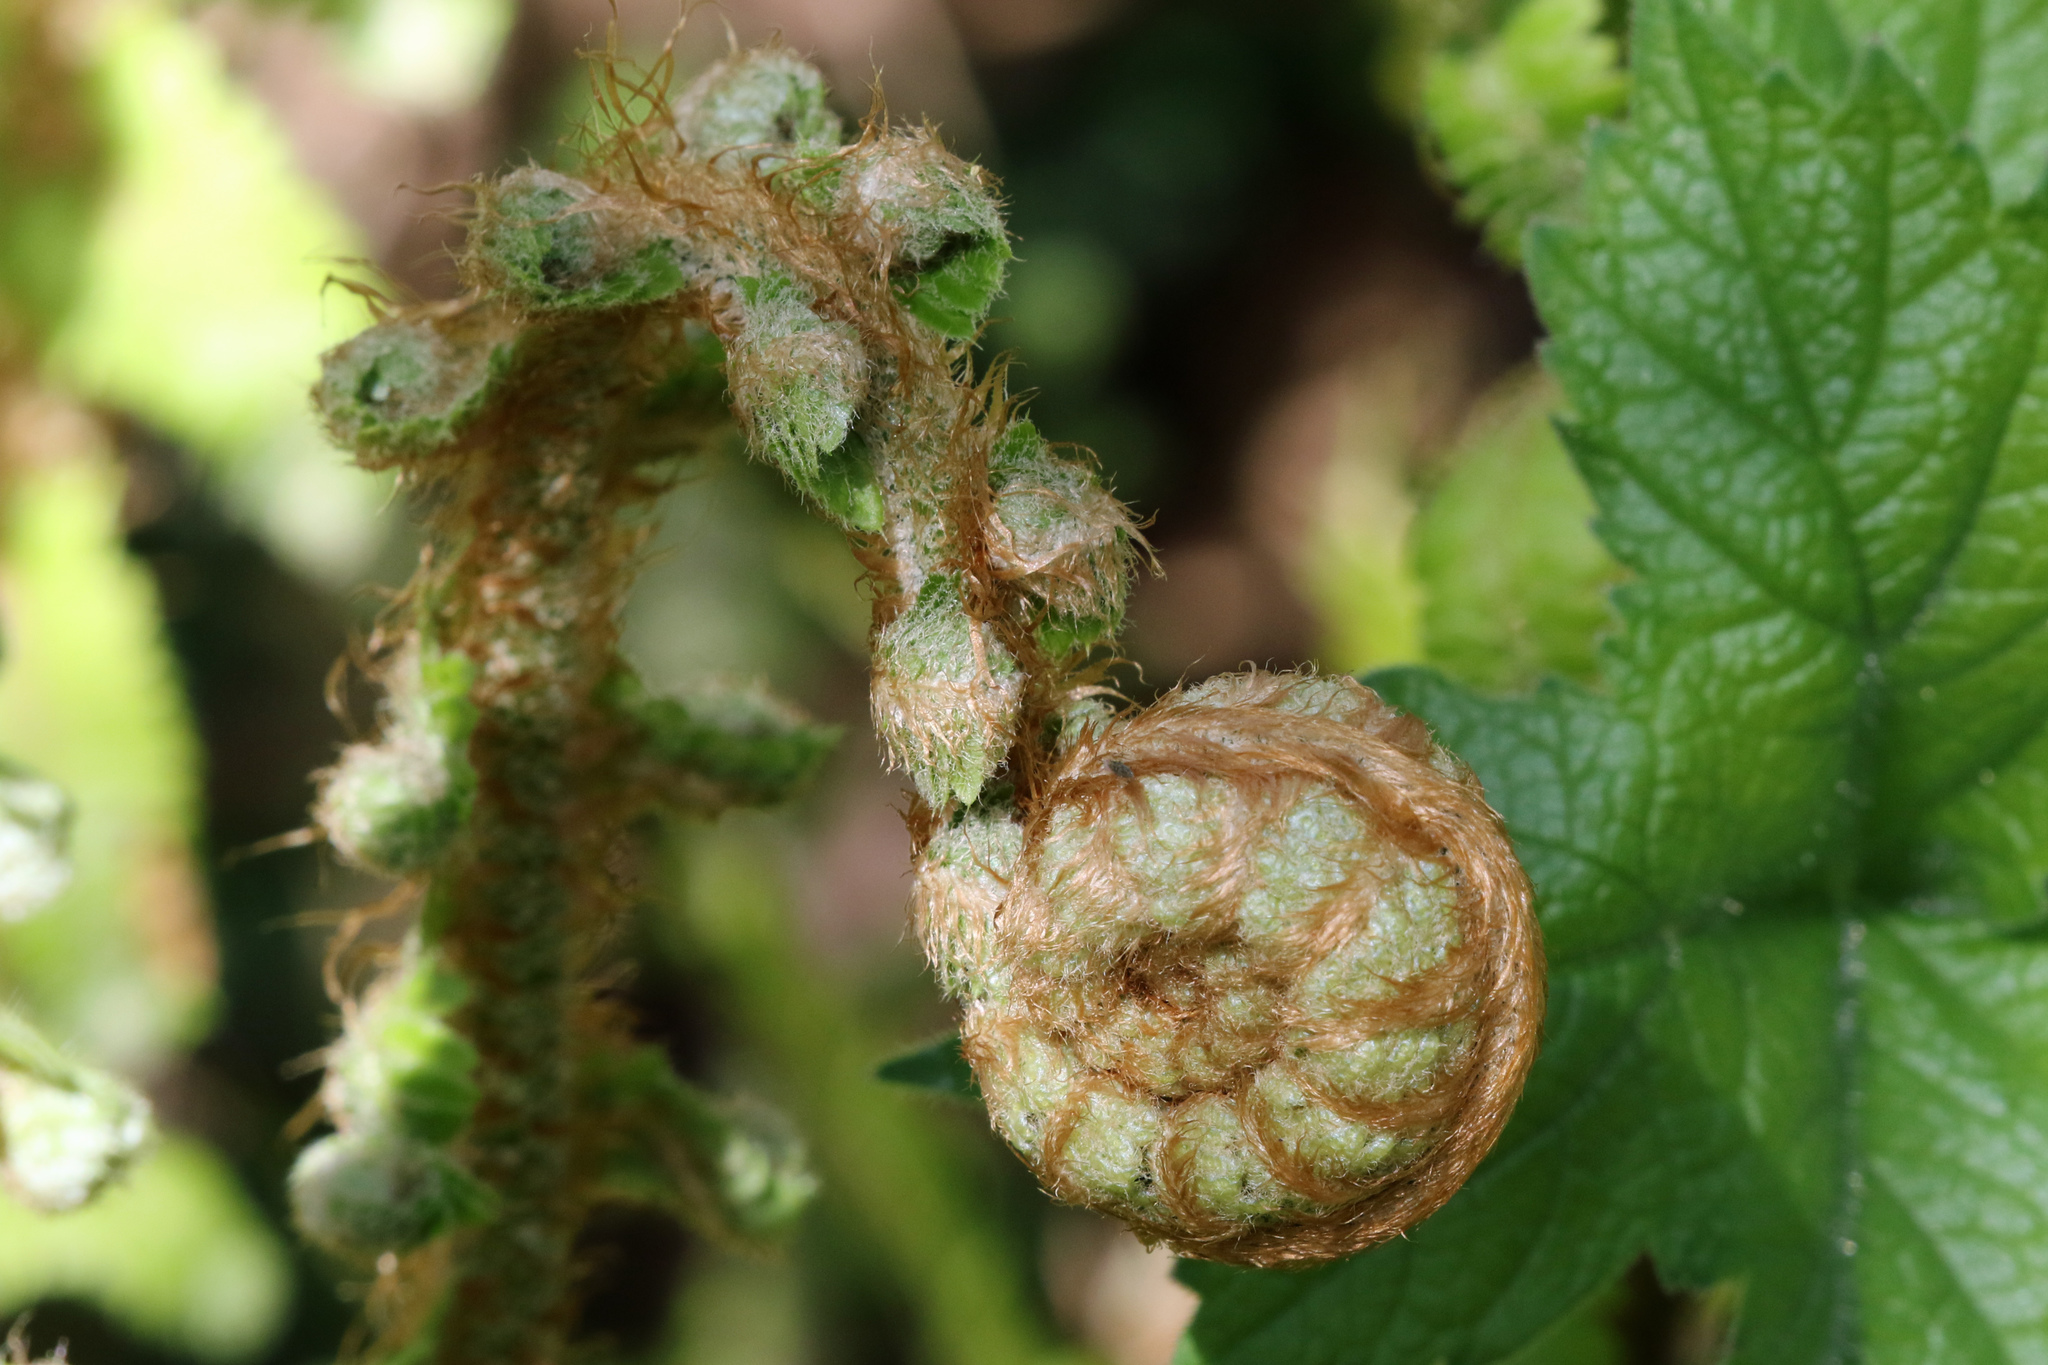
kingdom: Plantae
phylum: Tracheophyta
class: Polypodiopsida
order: Polypodiales
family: Dryopteridaceae
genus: Polystichum
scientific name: Polystichum setiferum
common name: Soft shield-fern
